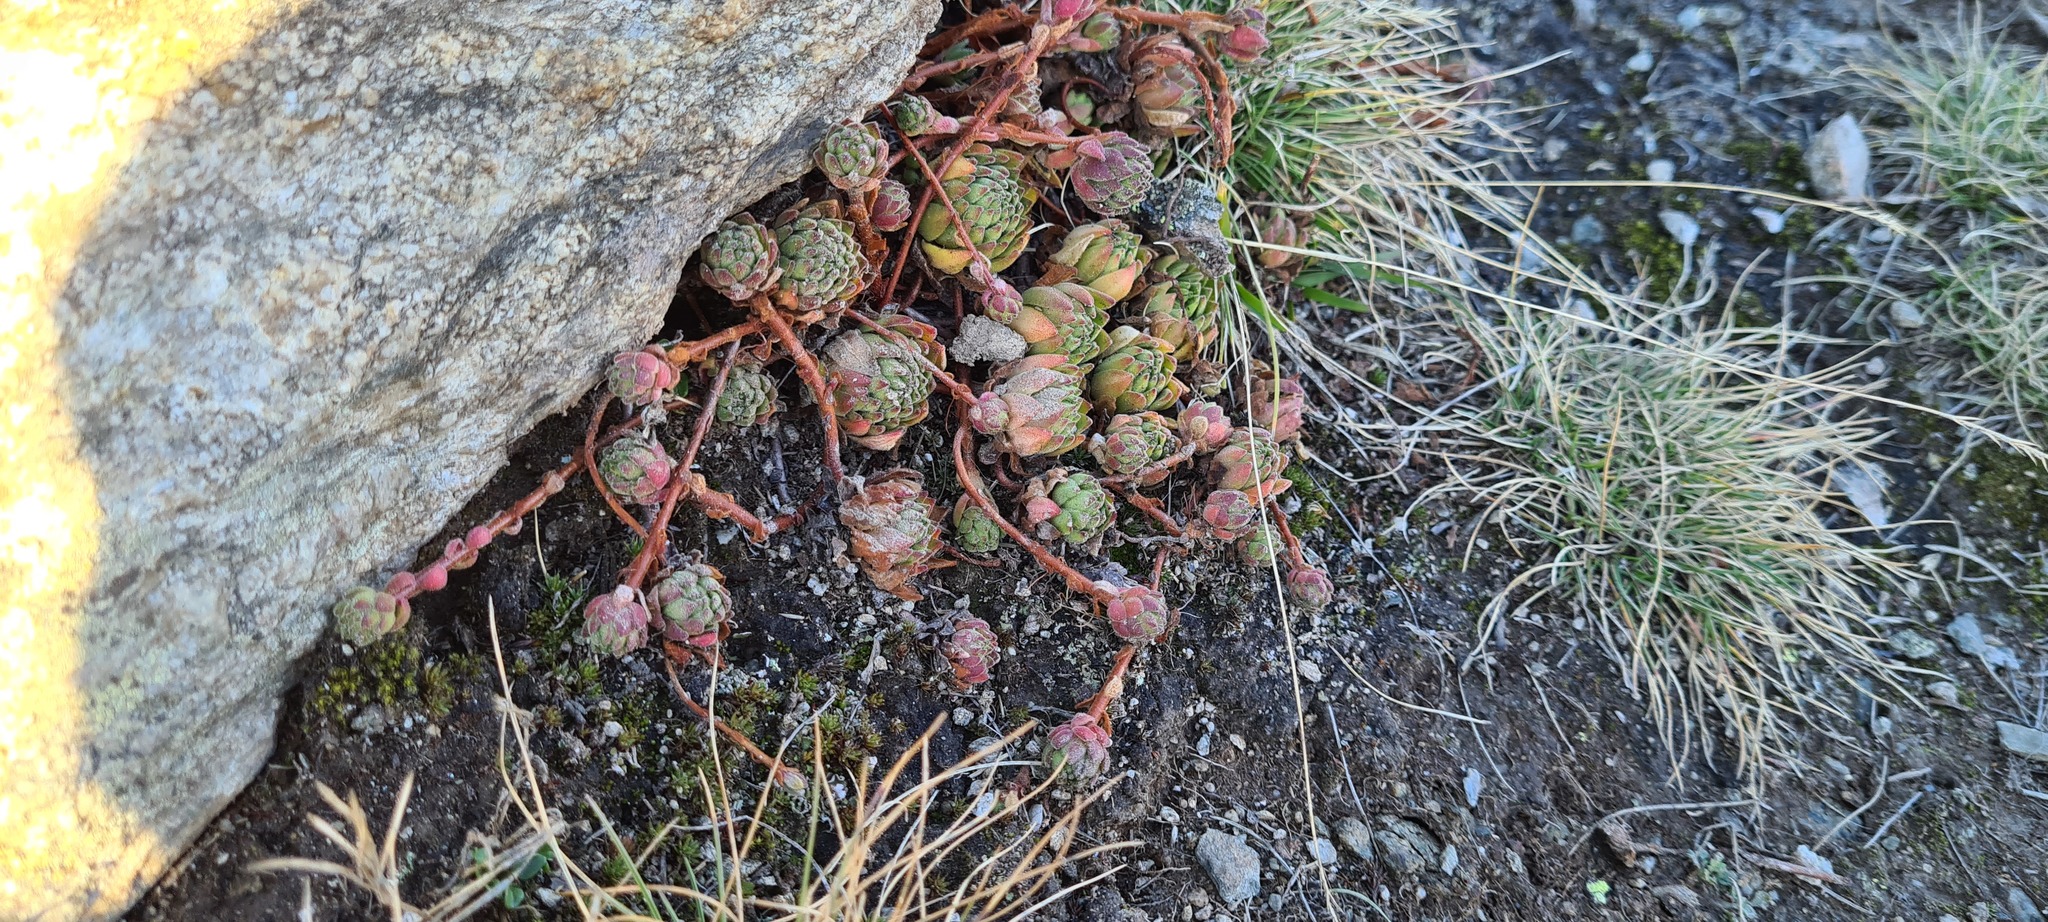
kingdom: Plantae
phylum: Tracheophyta
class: Magnoliopsida
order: Saxifragales
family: Crassulaceae
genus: Sempervivum
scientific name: Sempervivum montanum
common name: Mountain house-leek
